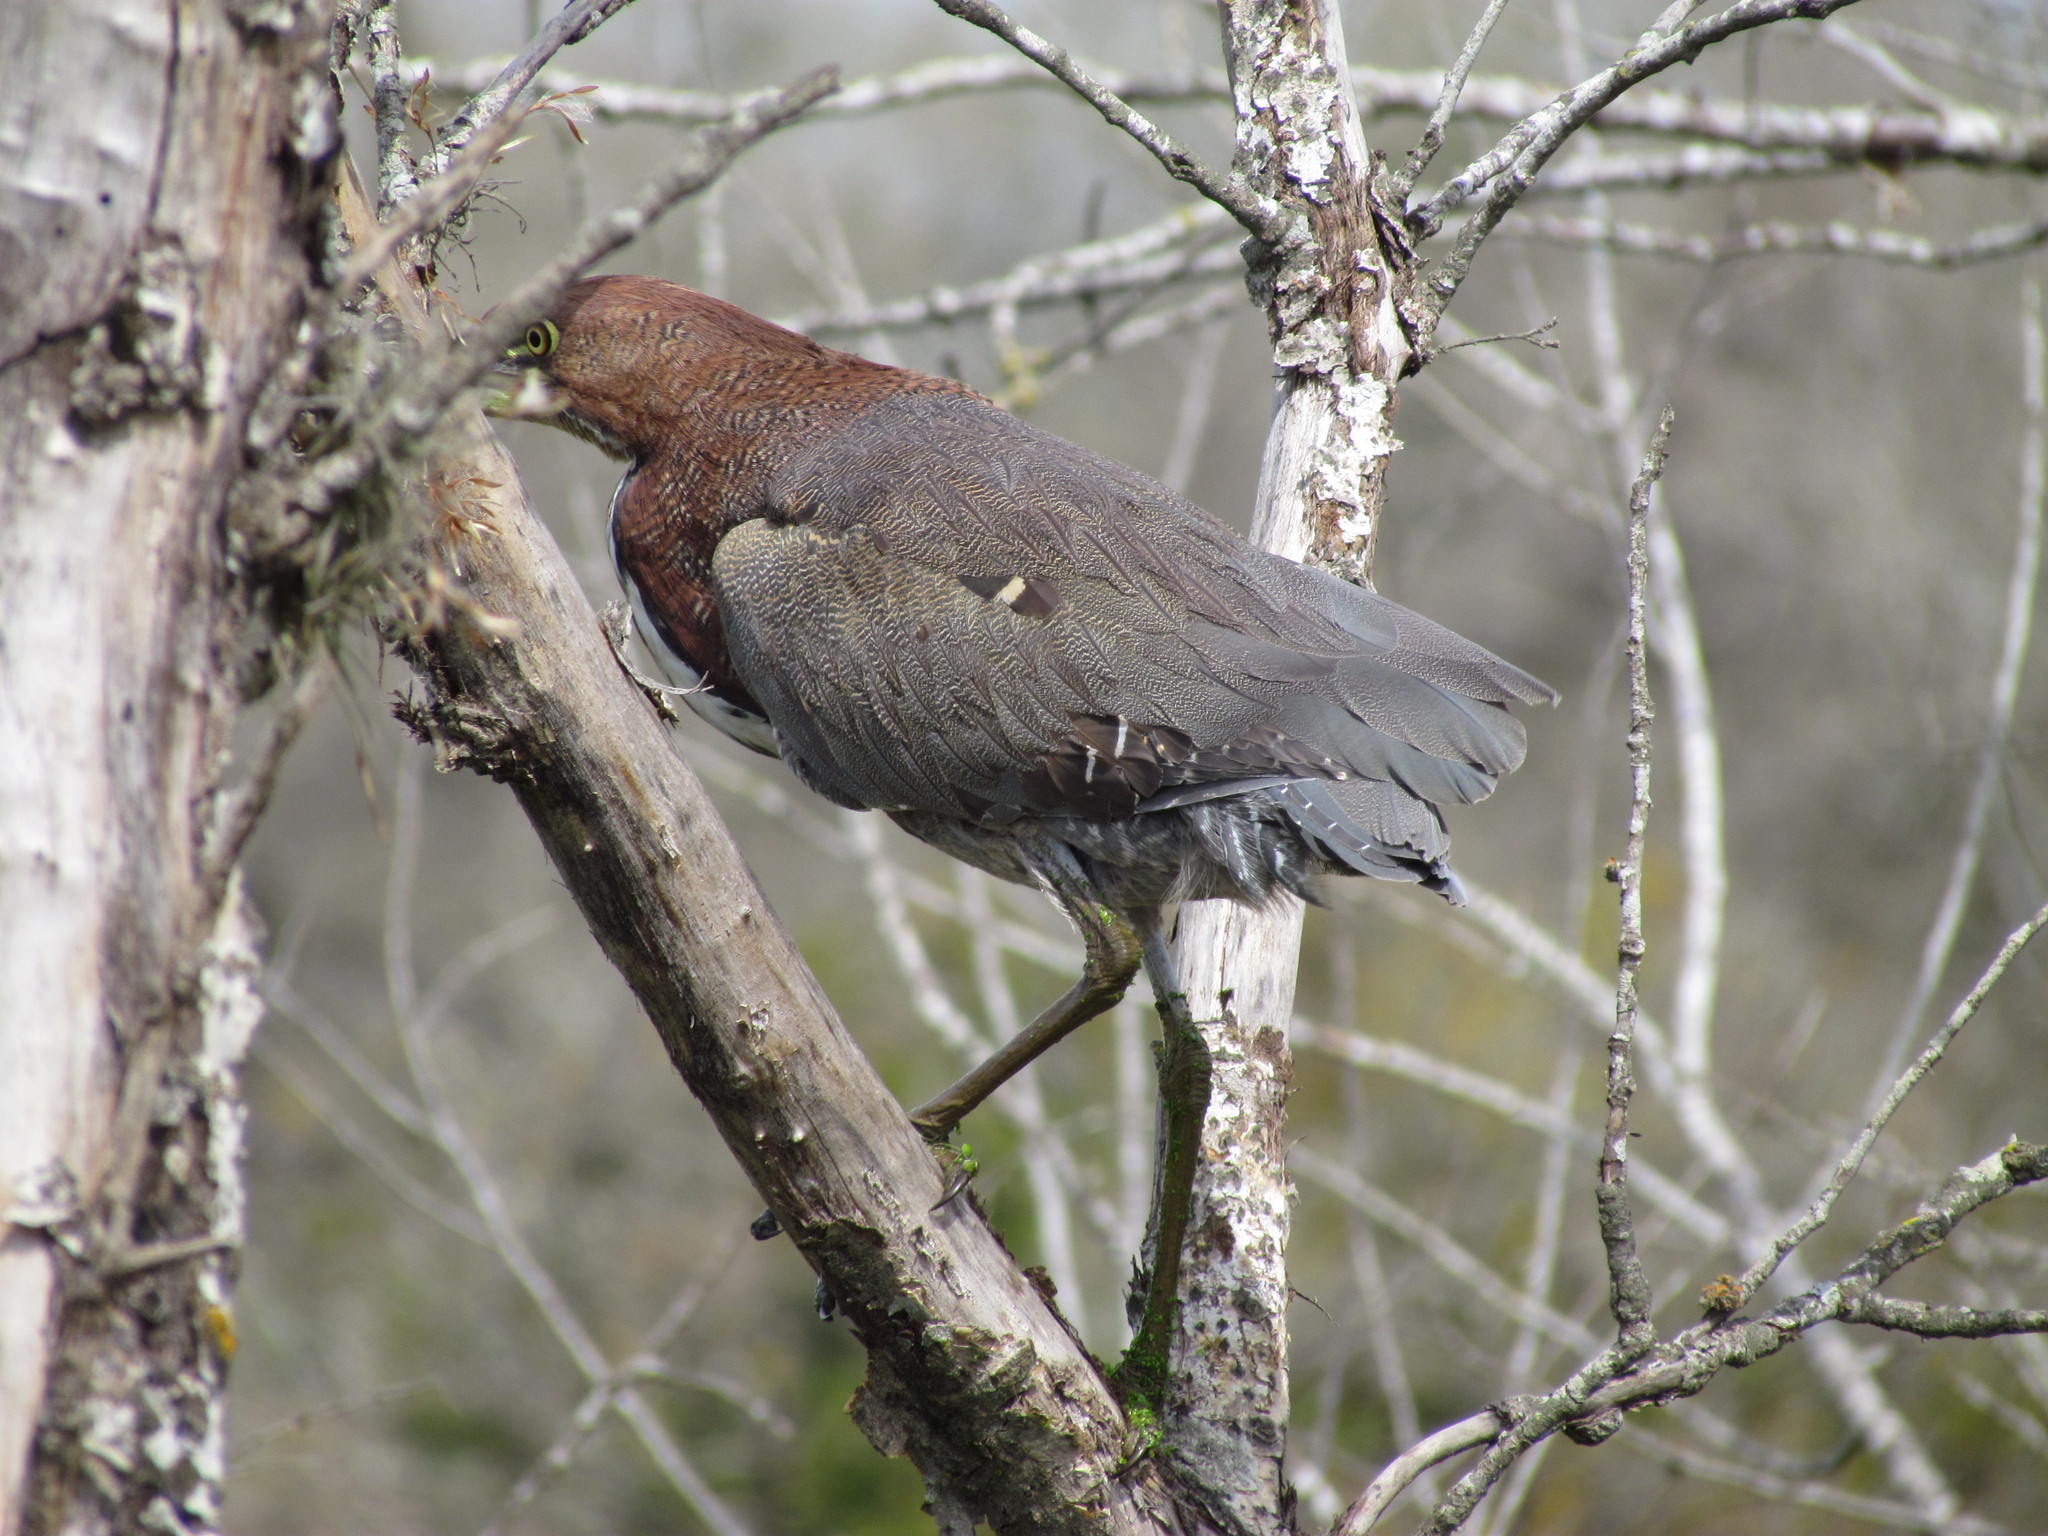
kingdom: Animalia
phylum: Chordata
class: Aves
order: Pelecaniformes
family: Ardeidae
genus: Tigrisoma
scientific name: Tigrisoma lineatum
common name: Rufescent tiger-heron
